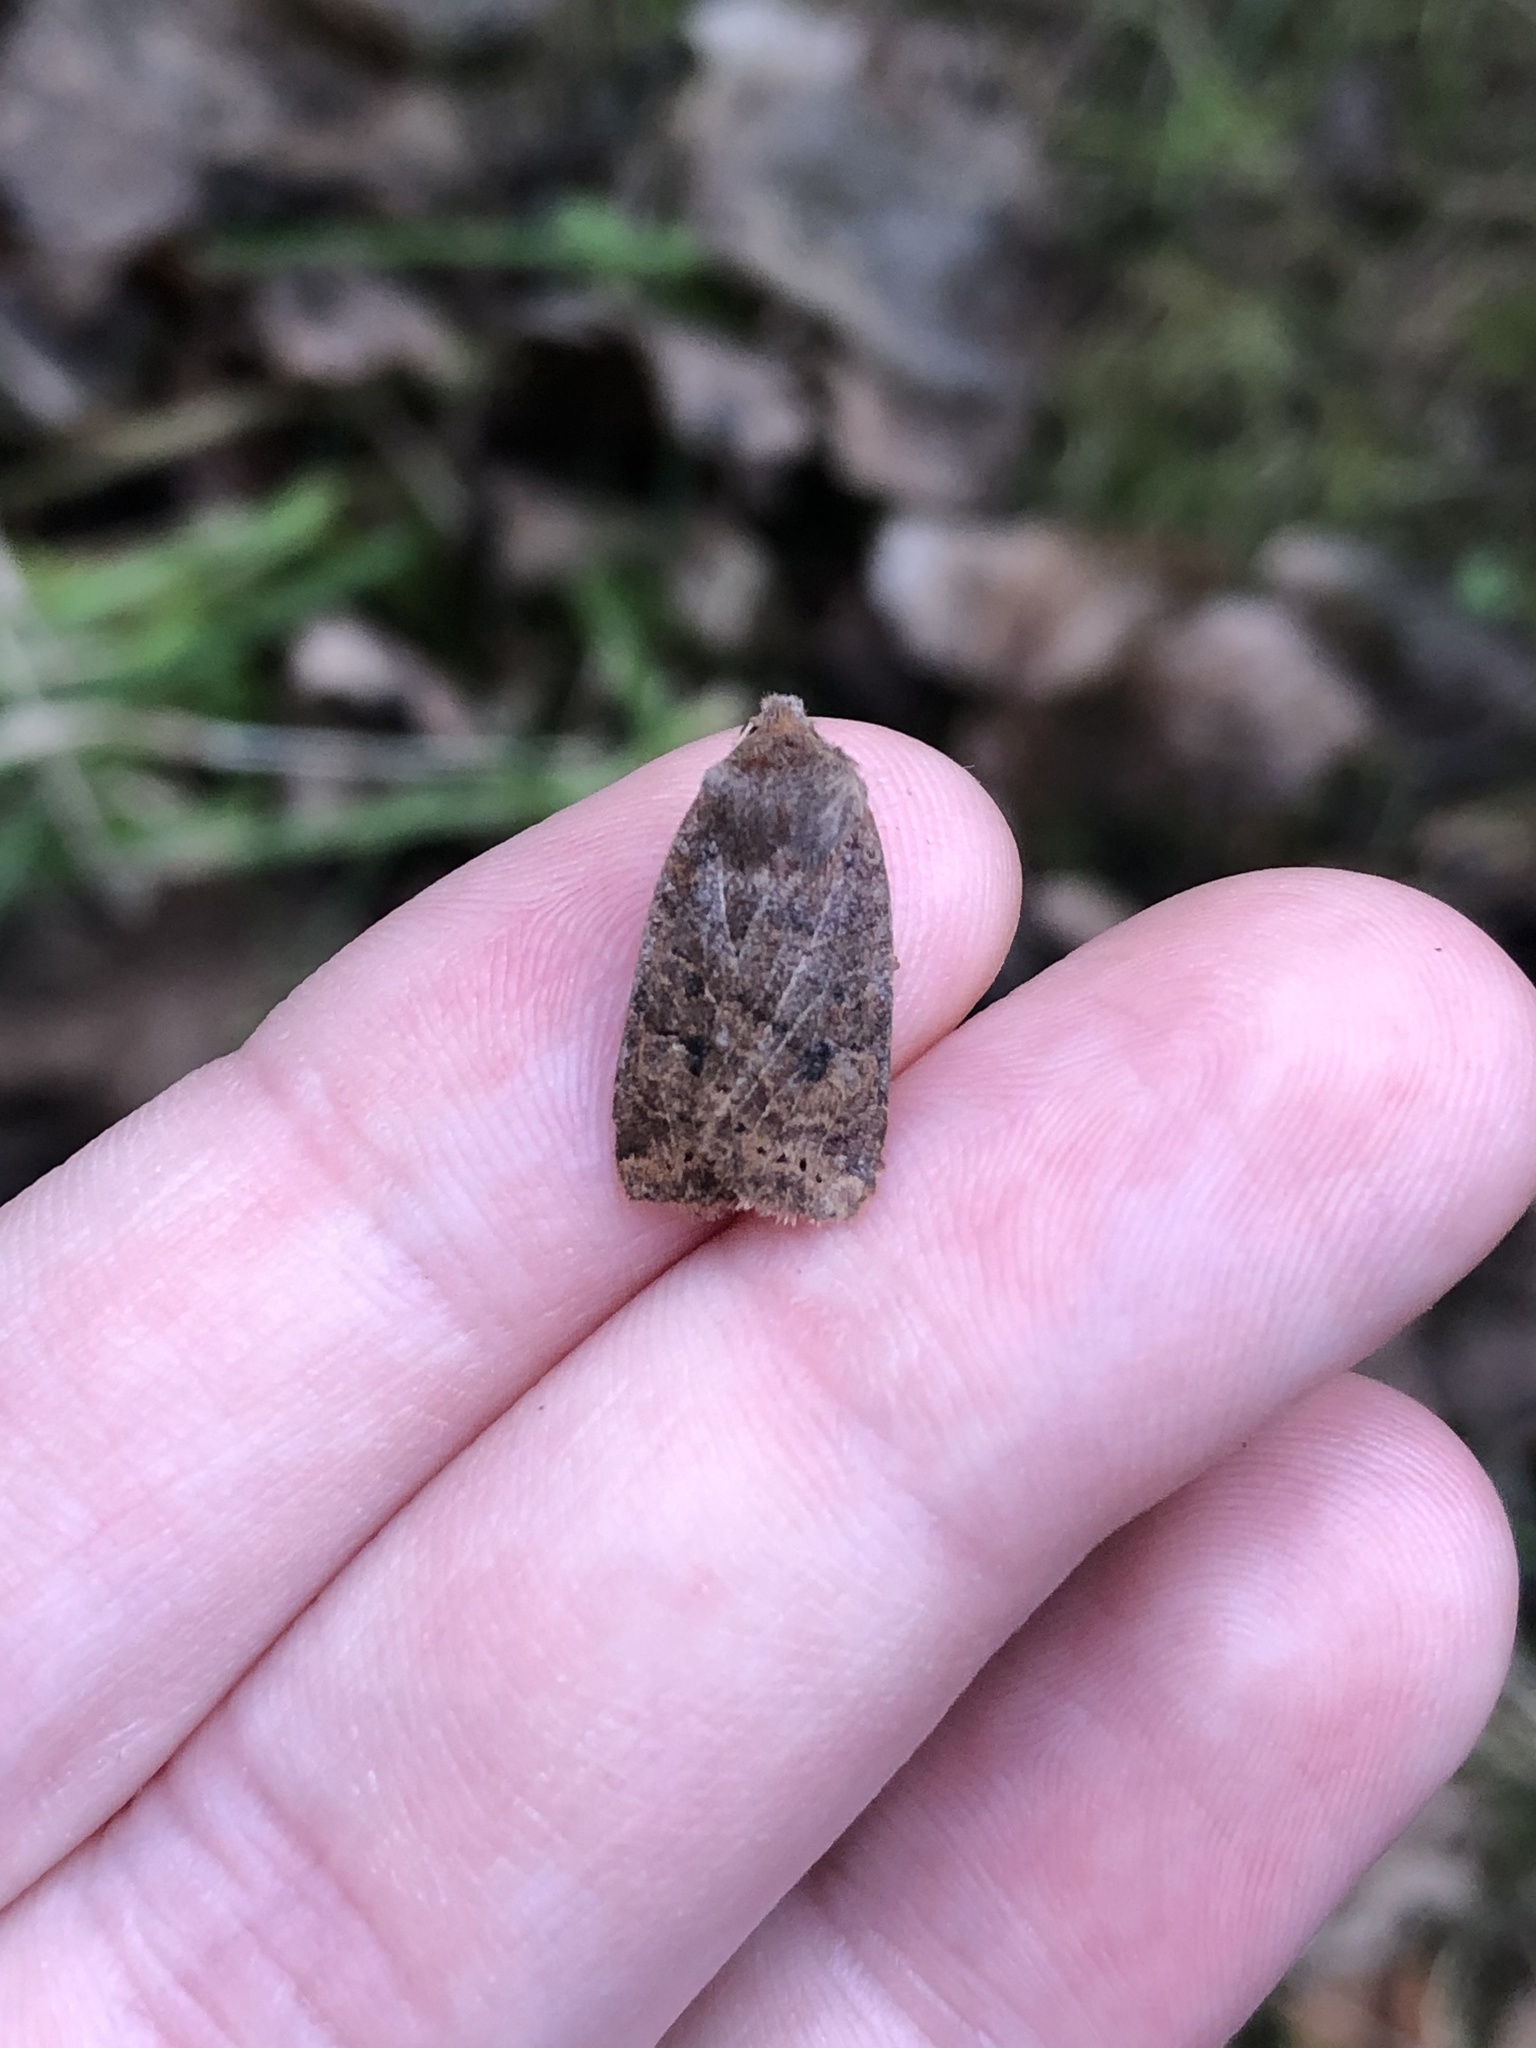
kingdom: Animalia
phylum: Arthropoda
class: Insecta
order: Lepidoptera
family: Noctuidae
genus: Conistra
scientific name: Conistra vaccinii
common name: Chestnut
